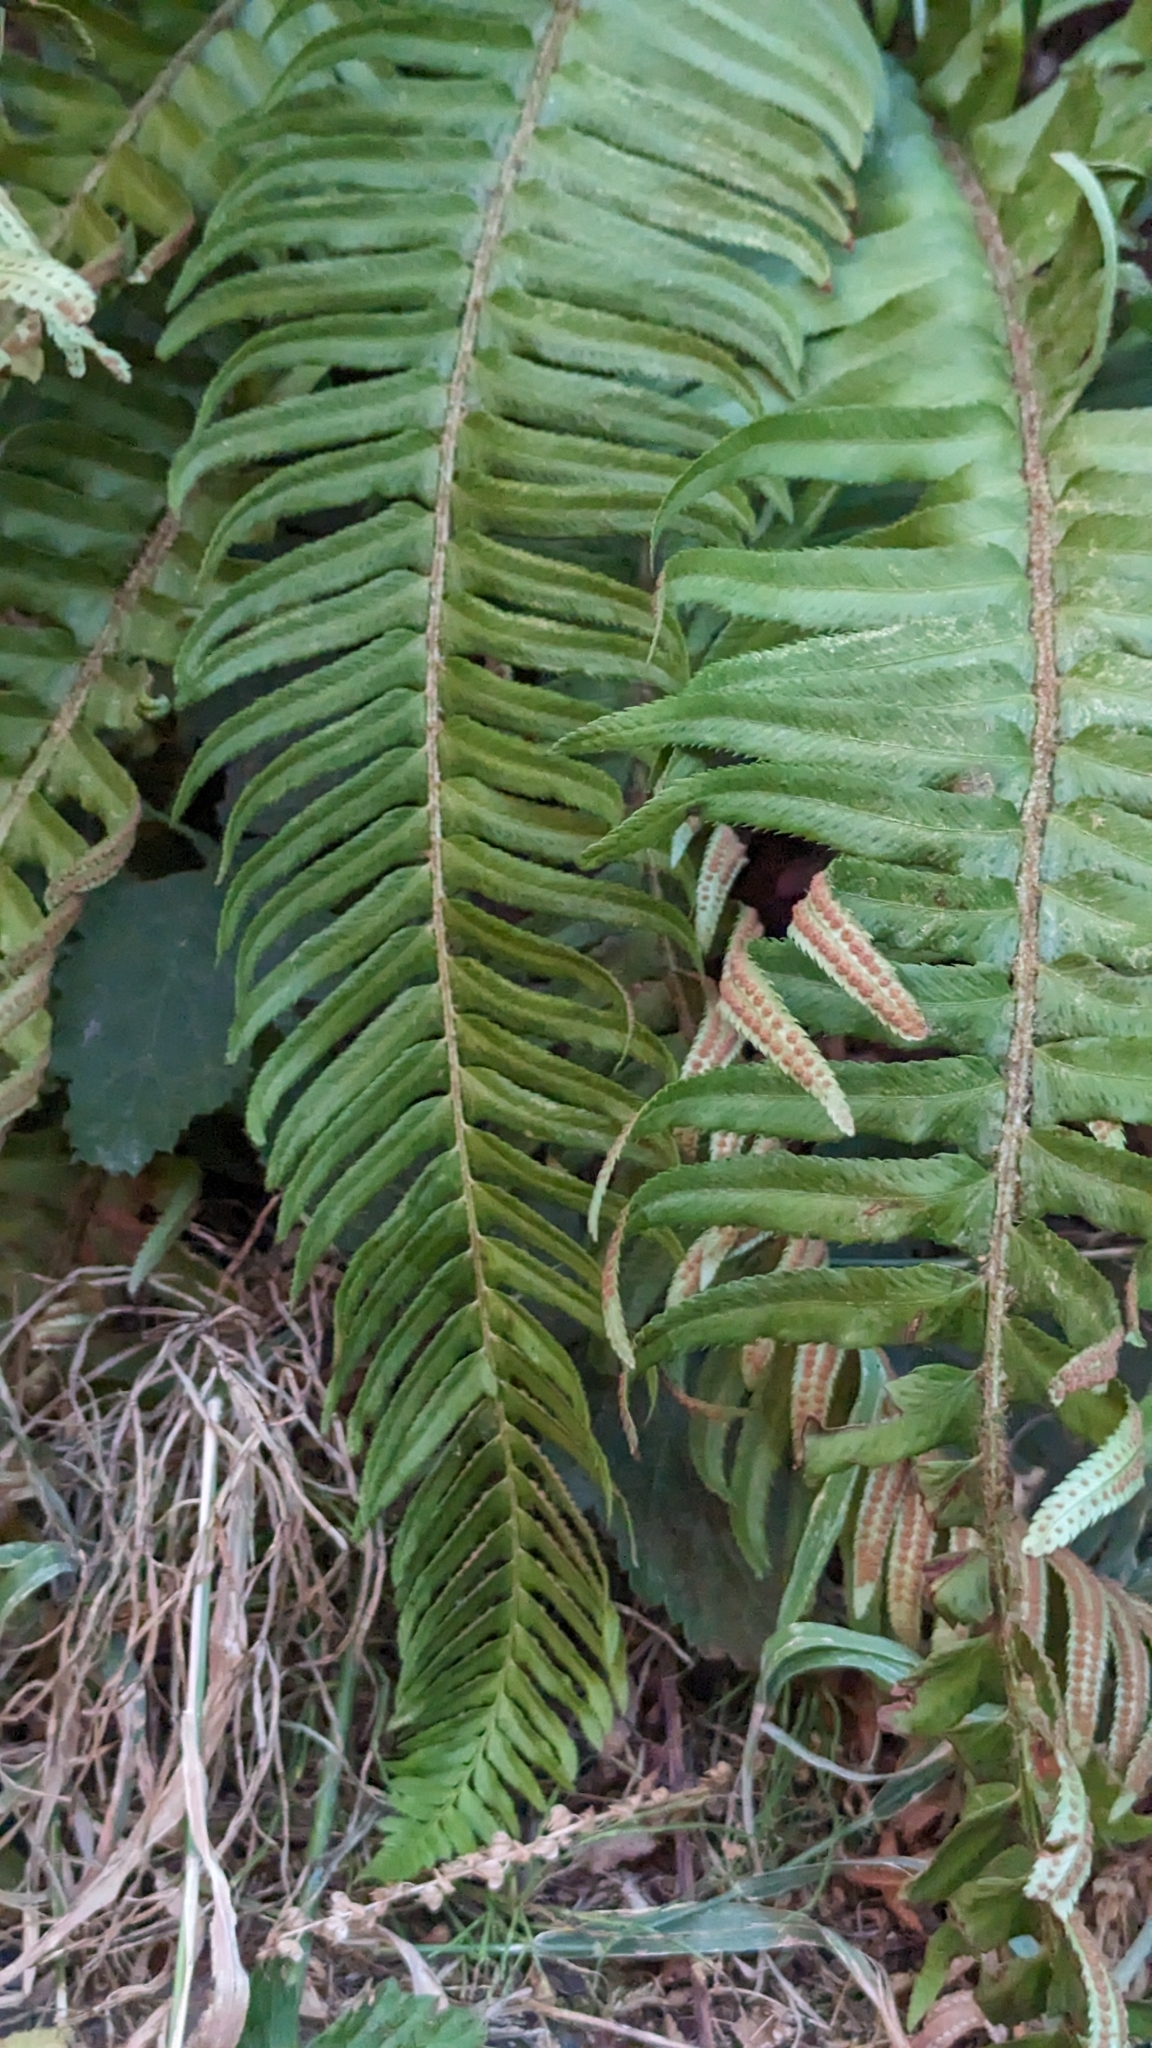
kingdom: Plantae
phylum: Tracheophyta
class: Polypodiopsida
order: Polypodiales
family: Dryopteridaceae
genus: Polystichum
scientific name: Polystichum munitum
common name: Western sword-fern
